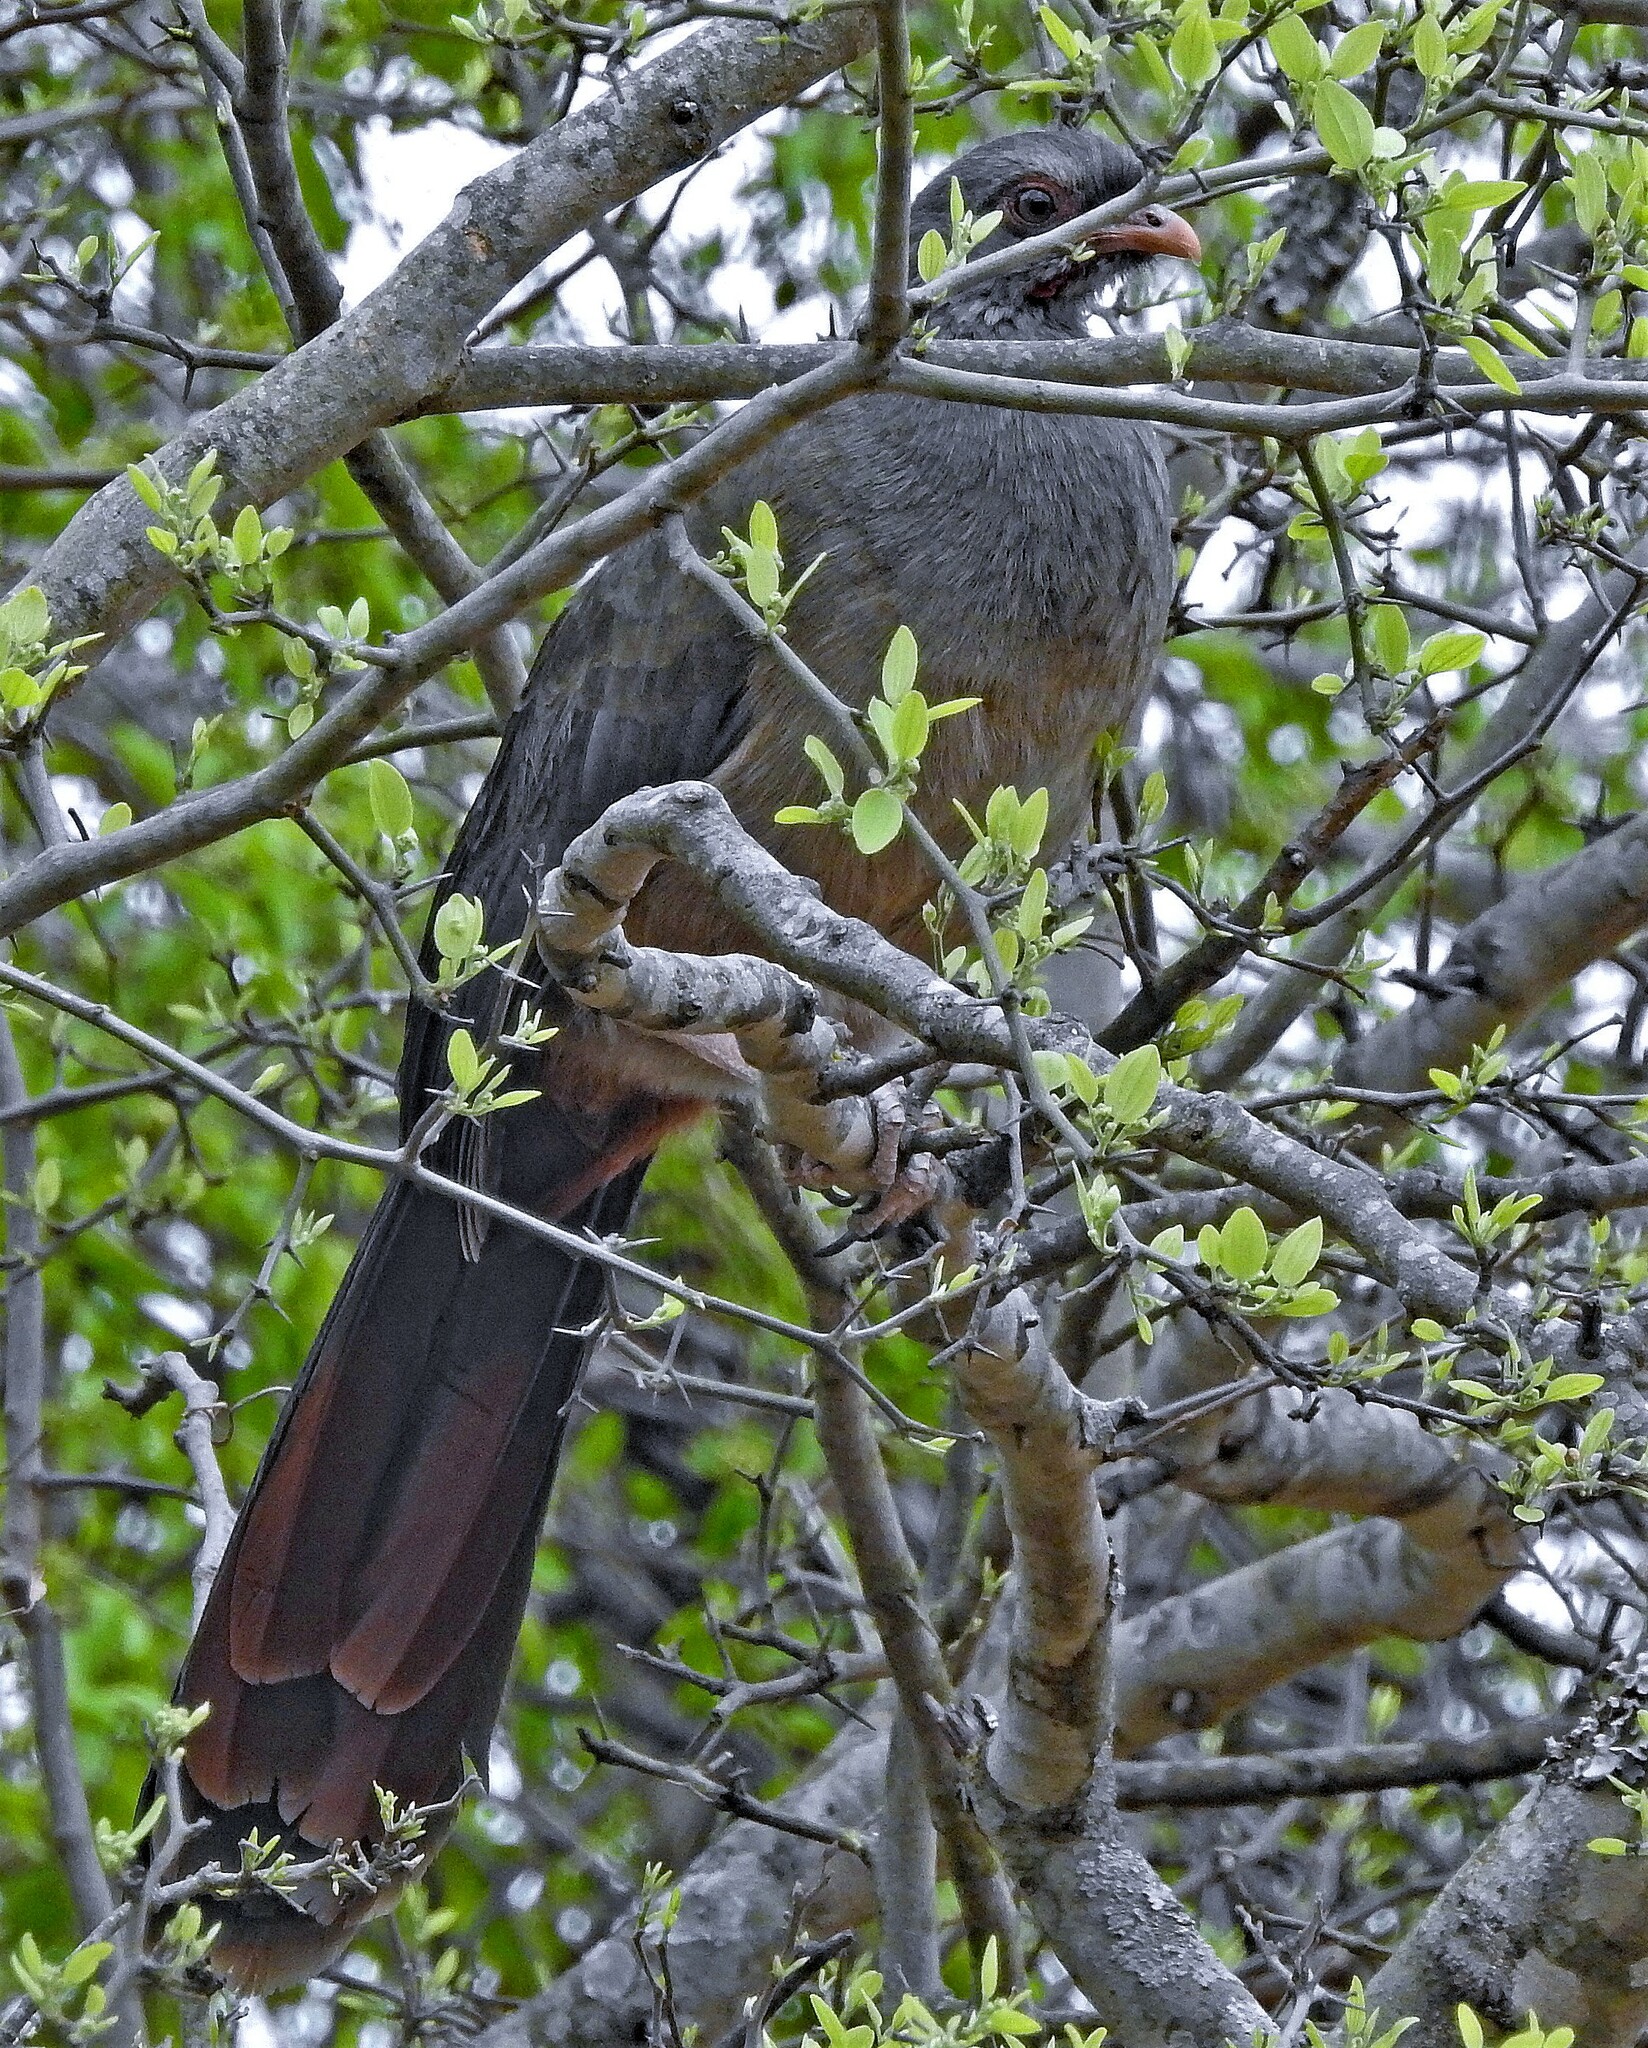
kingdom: Animalia
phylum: Chordata
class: Aves
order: Galliformes
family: Cracidae
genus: Ortalis
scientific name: Ortalis canicollis
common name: Chaco chachalaca
